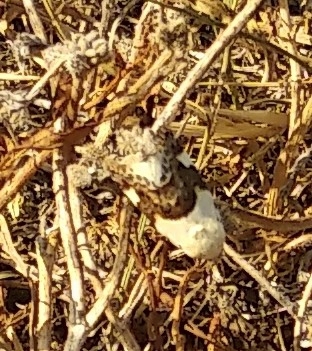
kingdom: Animalia
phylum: Arthropoda
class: Insecta
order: Lepidoptera
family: Noctuidae
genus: Acontia
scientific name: Acontia lucida
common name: Pale shoulder
